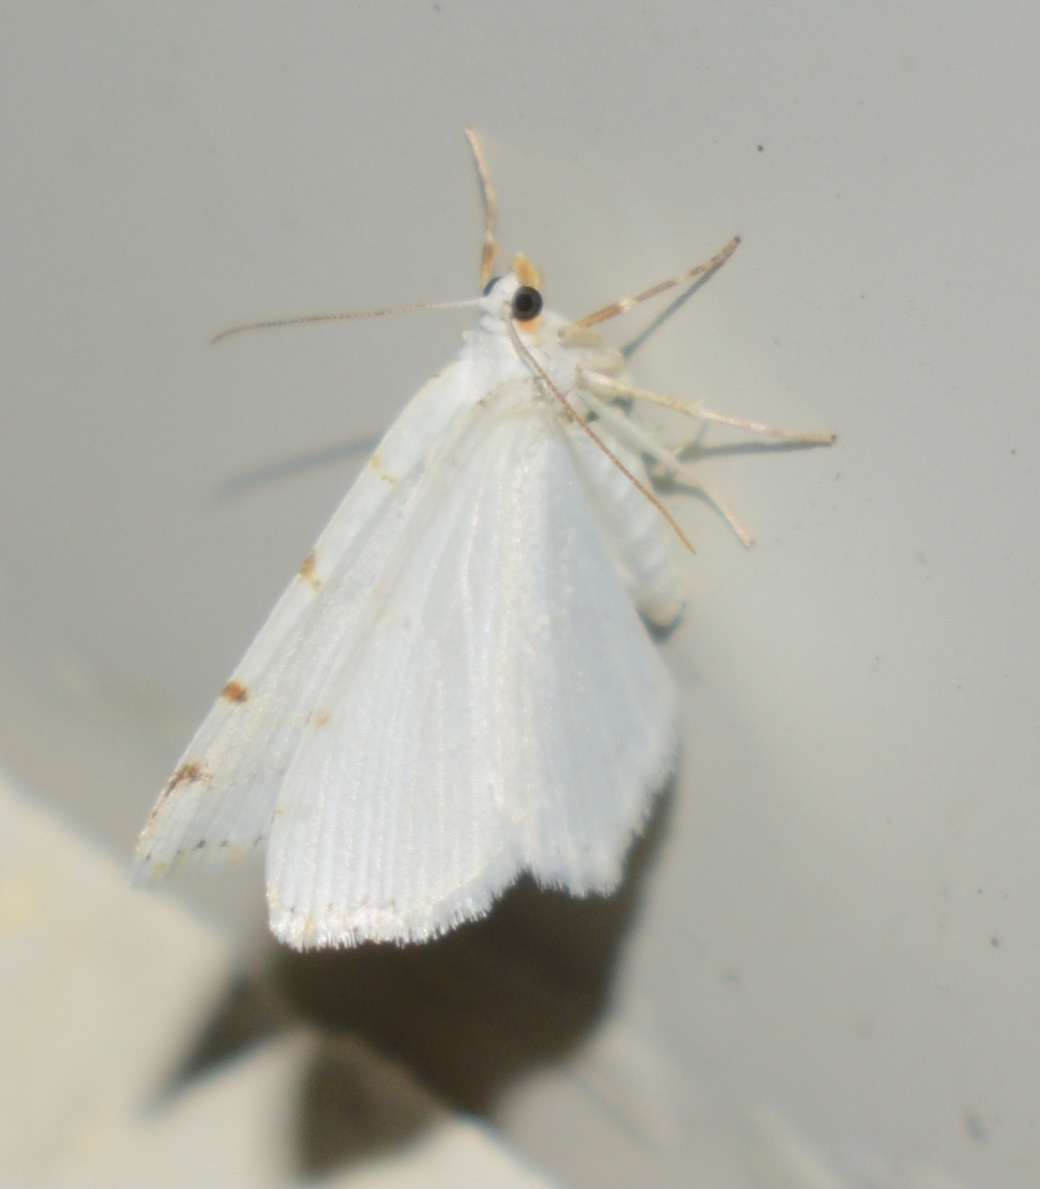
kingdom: Animalia
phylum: Arthropoda
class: Insecta
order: Lepidoptera
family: Geometridae
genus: Macaria
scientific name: Macaria pustularia
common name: Lesser maple spanworm moth
